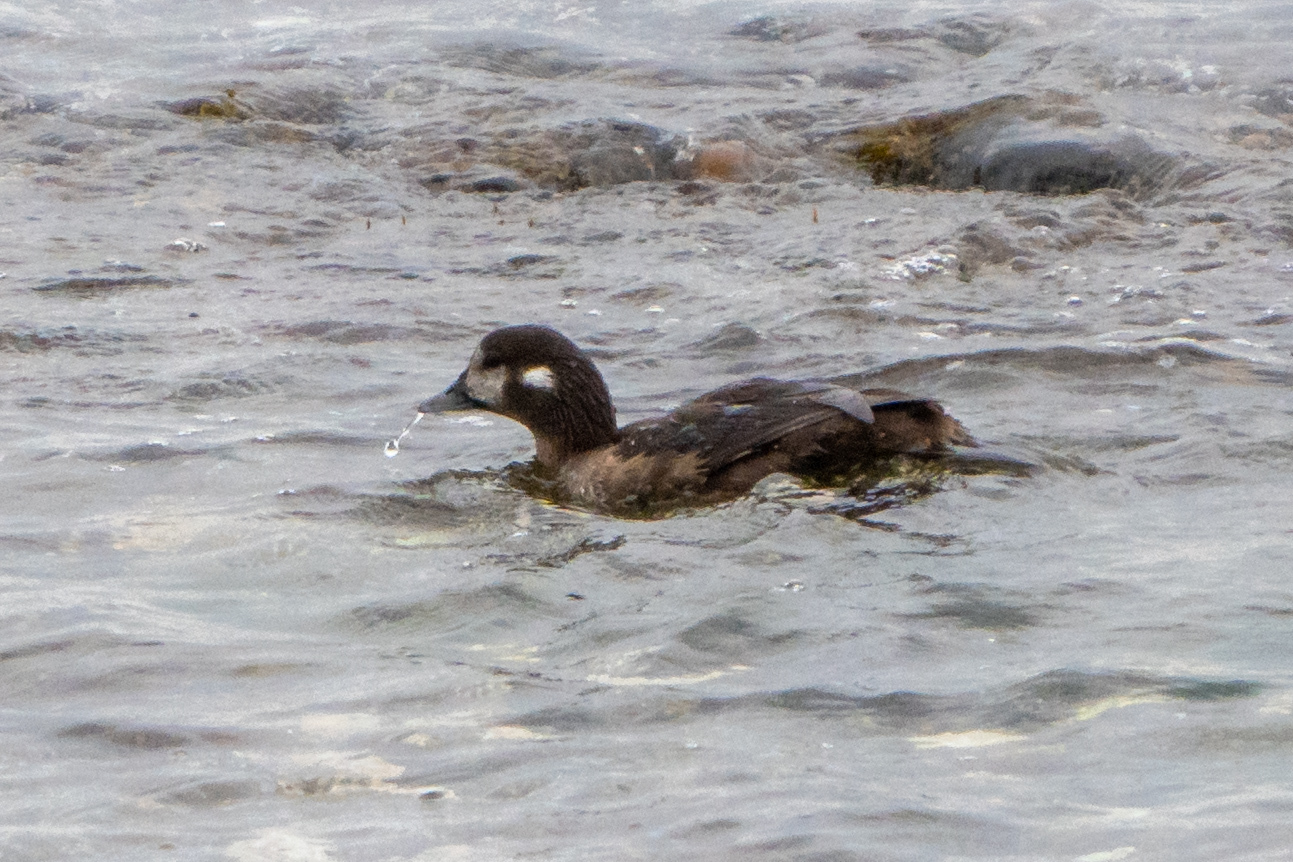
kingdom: Animalia
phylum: Chordata
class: Aves
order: Anseriformes
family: Anatidae
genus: Histrionicus
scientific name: Histrionicus histrionicus
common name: Harlequin duck
